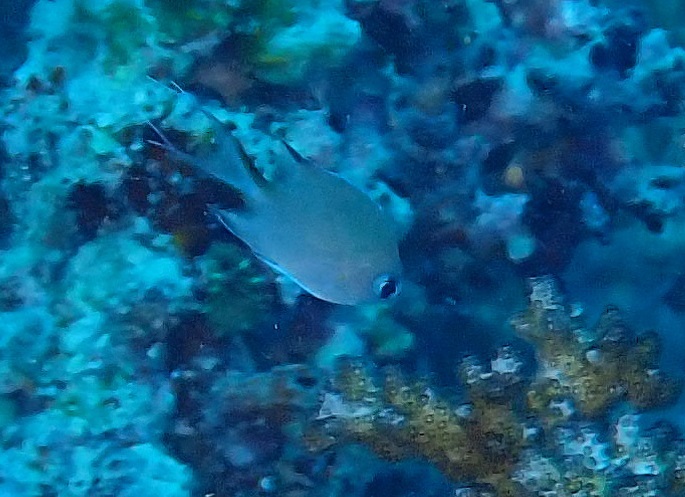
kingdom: Animalia
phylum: Chordata
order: Perciformes
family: Pomacentridae
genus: Chromis
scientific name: Chromis amboinensis
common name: Ambon chromis
